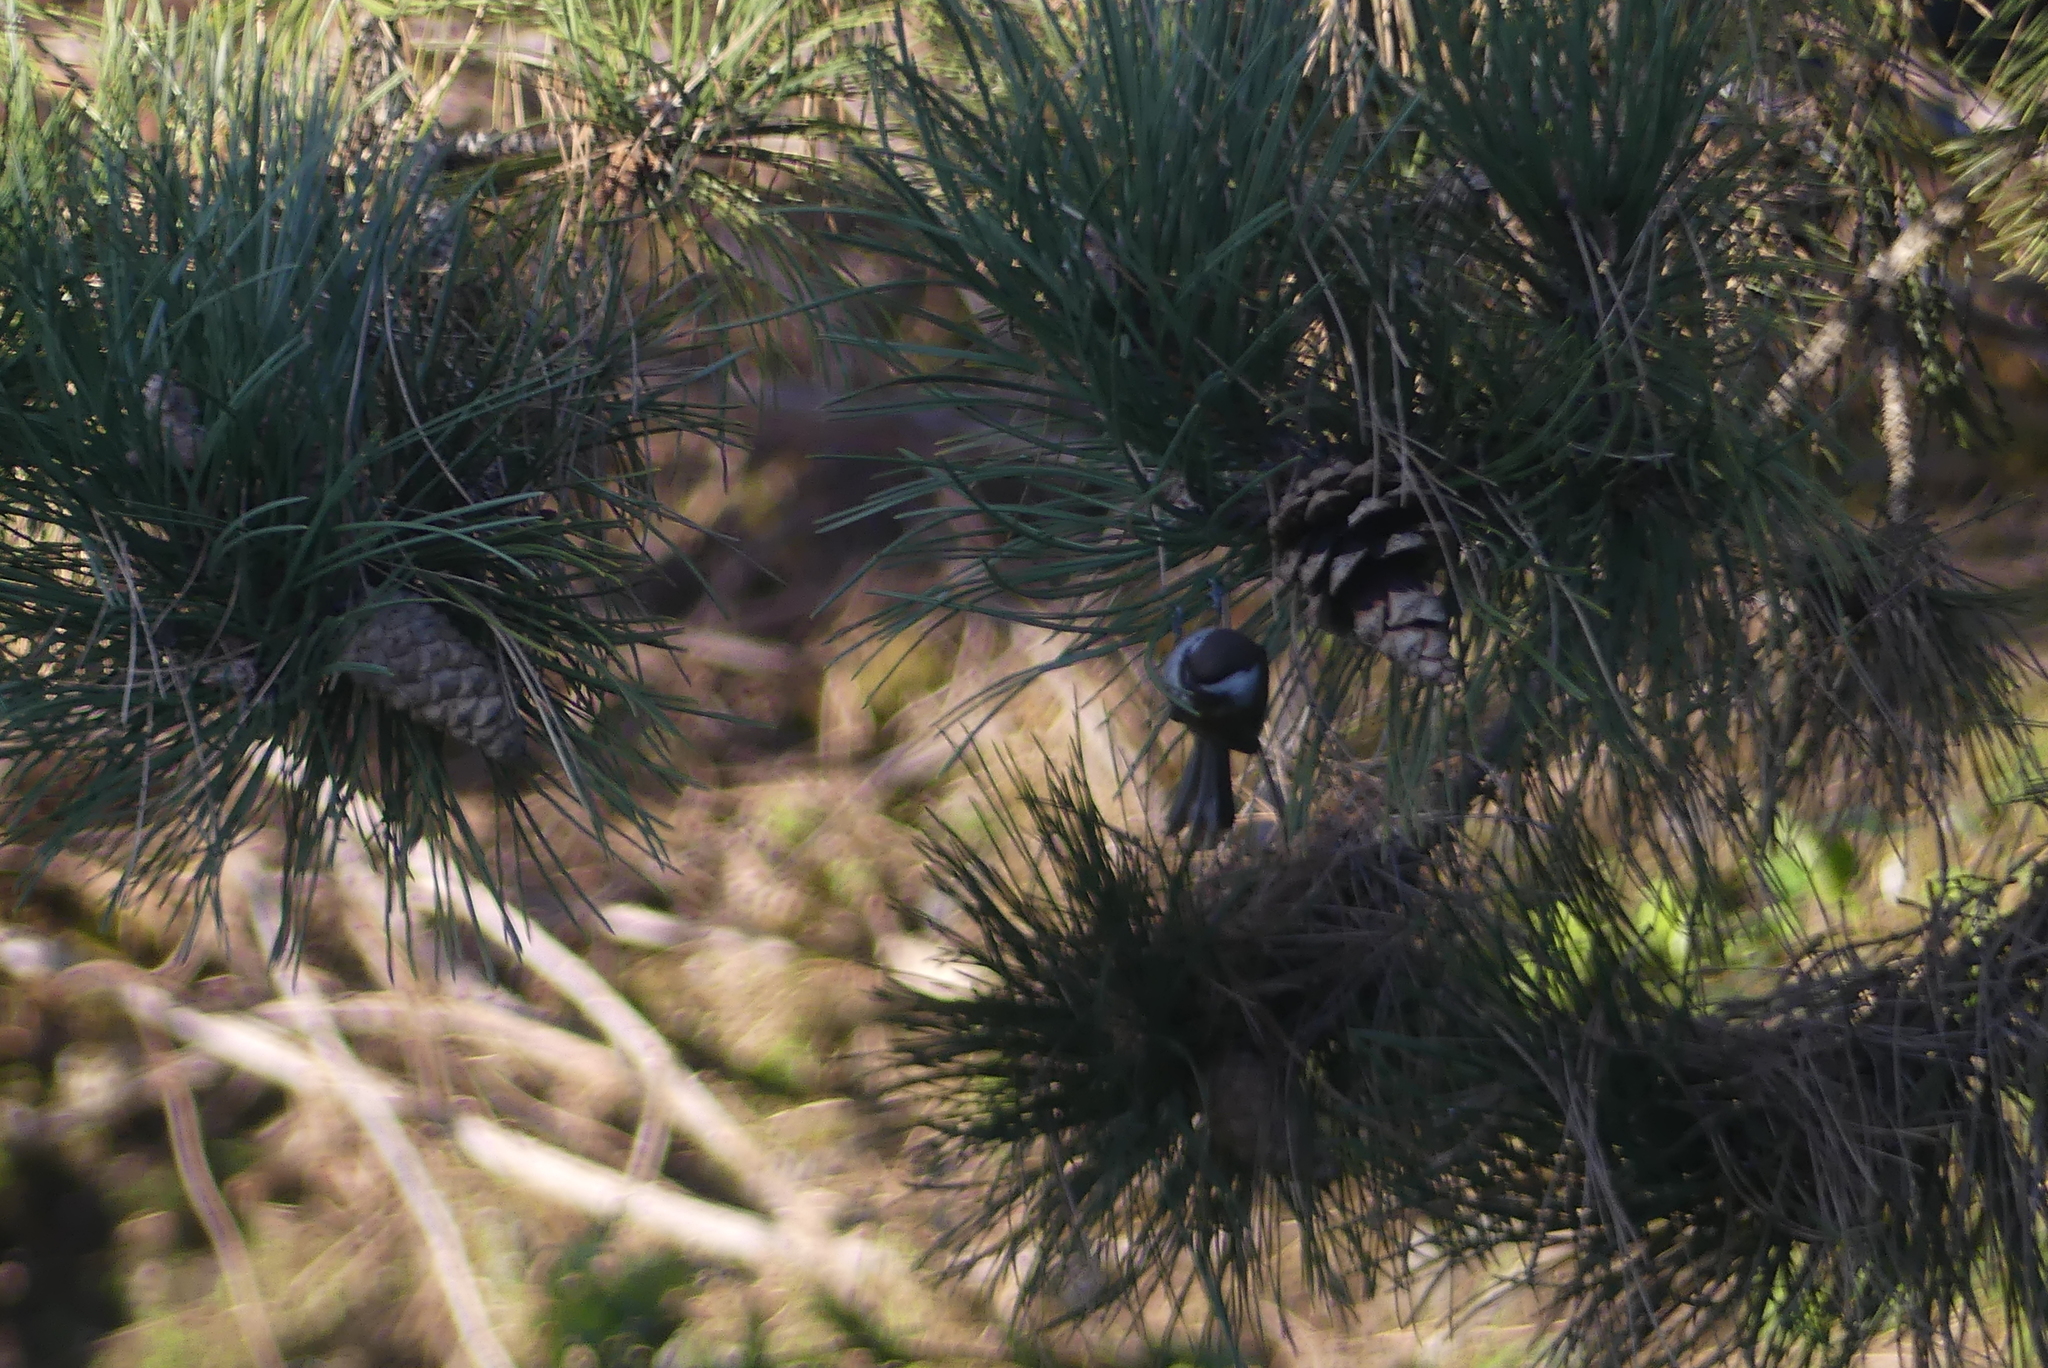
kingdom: Animalia
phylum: Chordata
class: Aves
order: Passeriformes
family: Paridae
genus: Poecile
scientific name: Poecile rufescens
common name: Chestnut-backed chickadee
